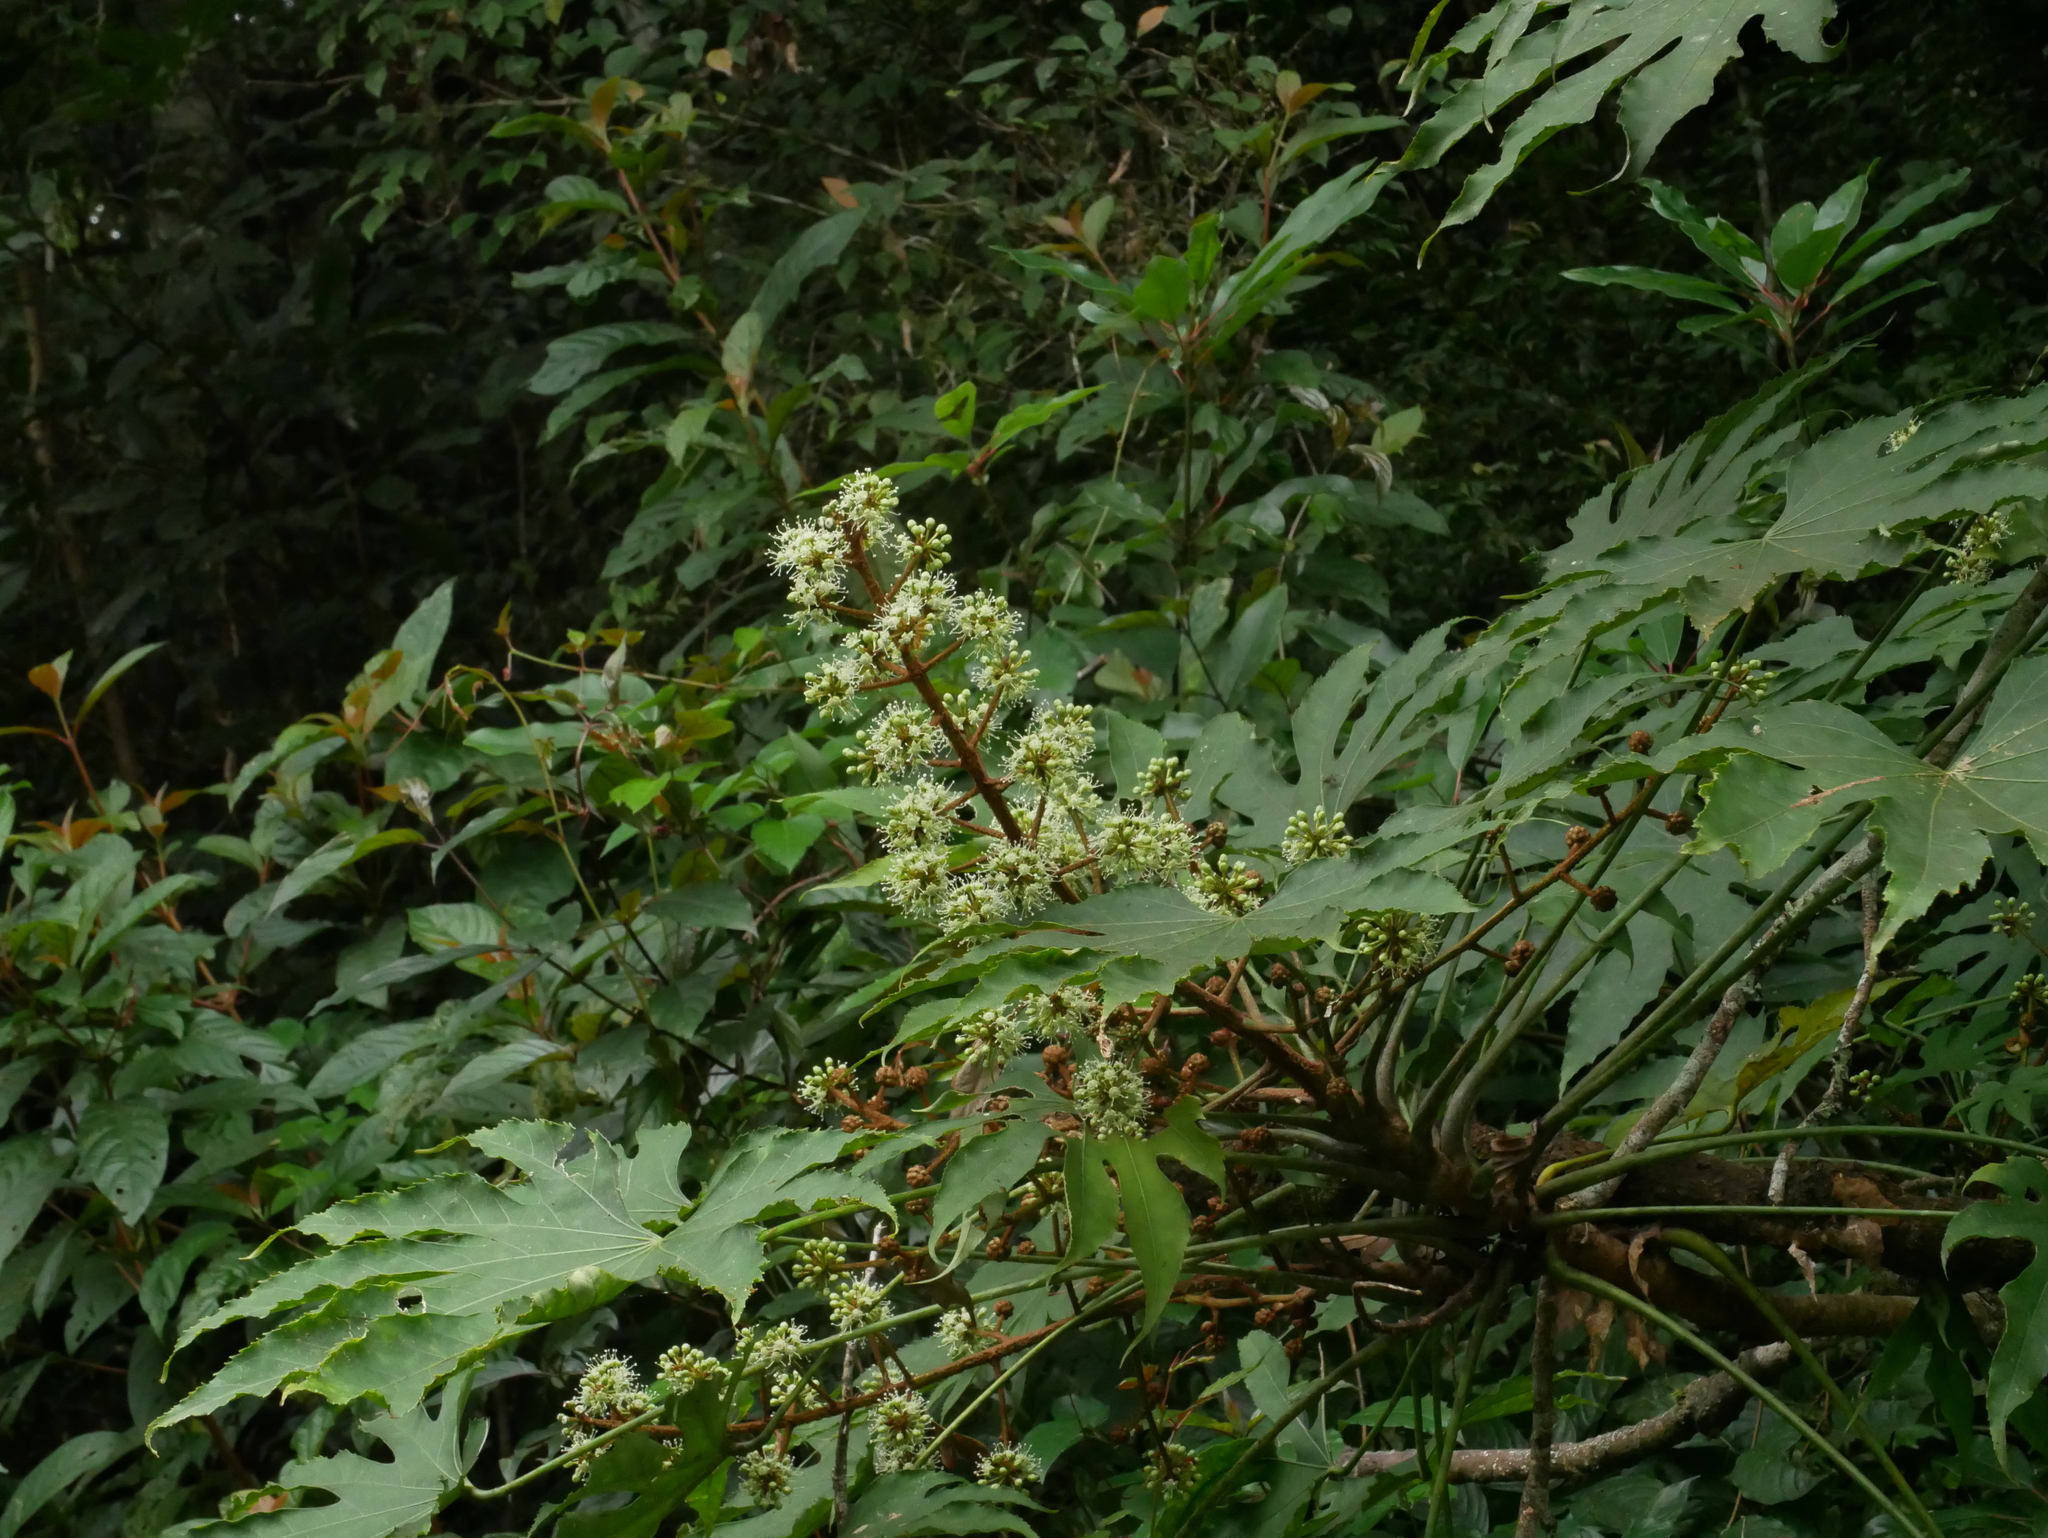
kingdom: Plantae
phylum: Tracheophyta
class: Magnoliopsida
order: Apiales
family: Araliaceae
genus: Fatsia
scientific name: Fatsia polycarpa
